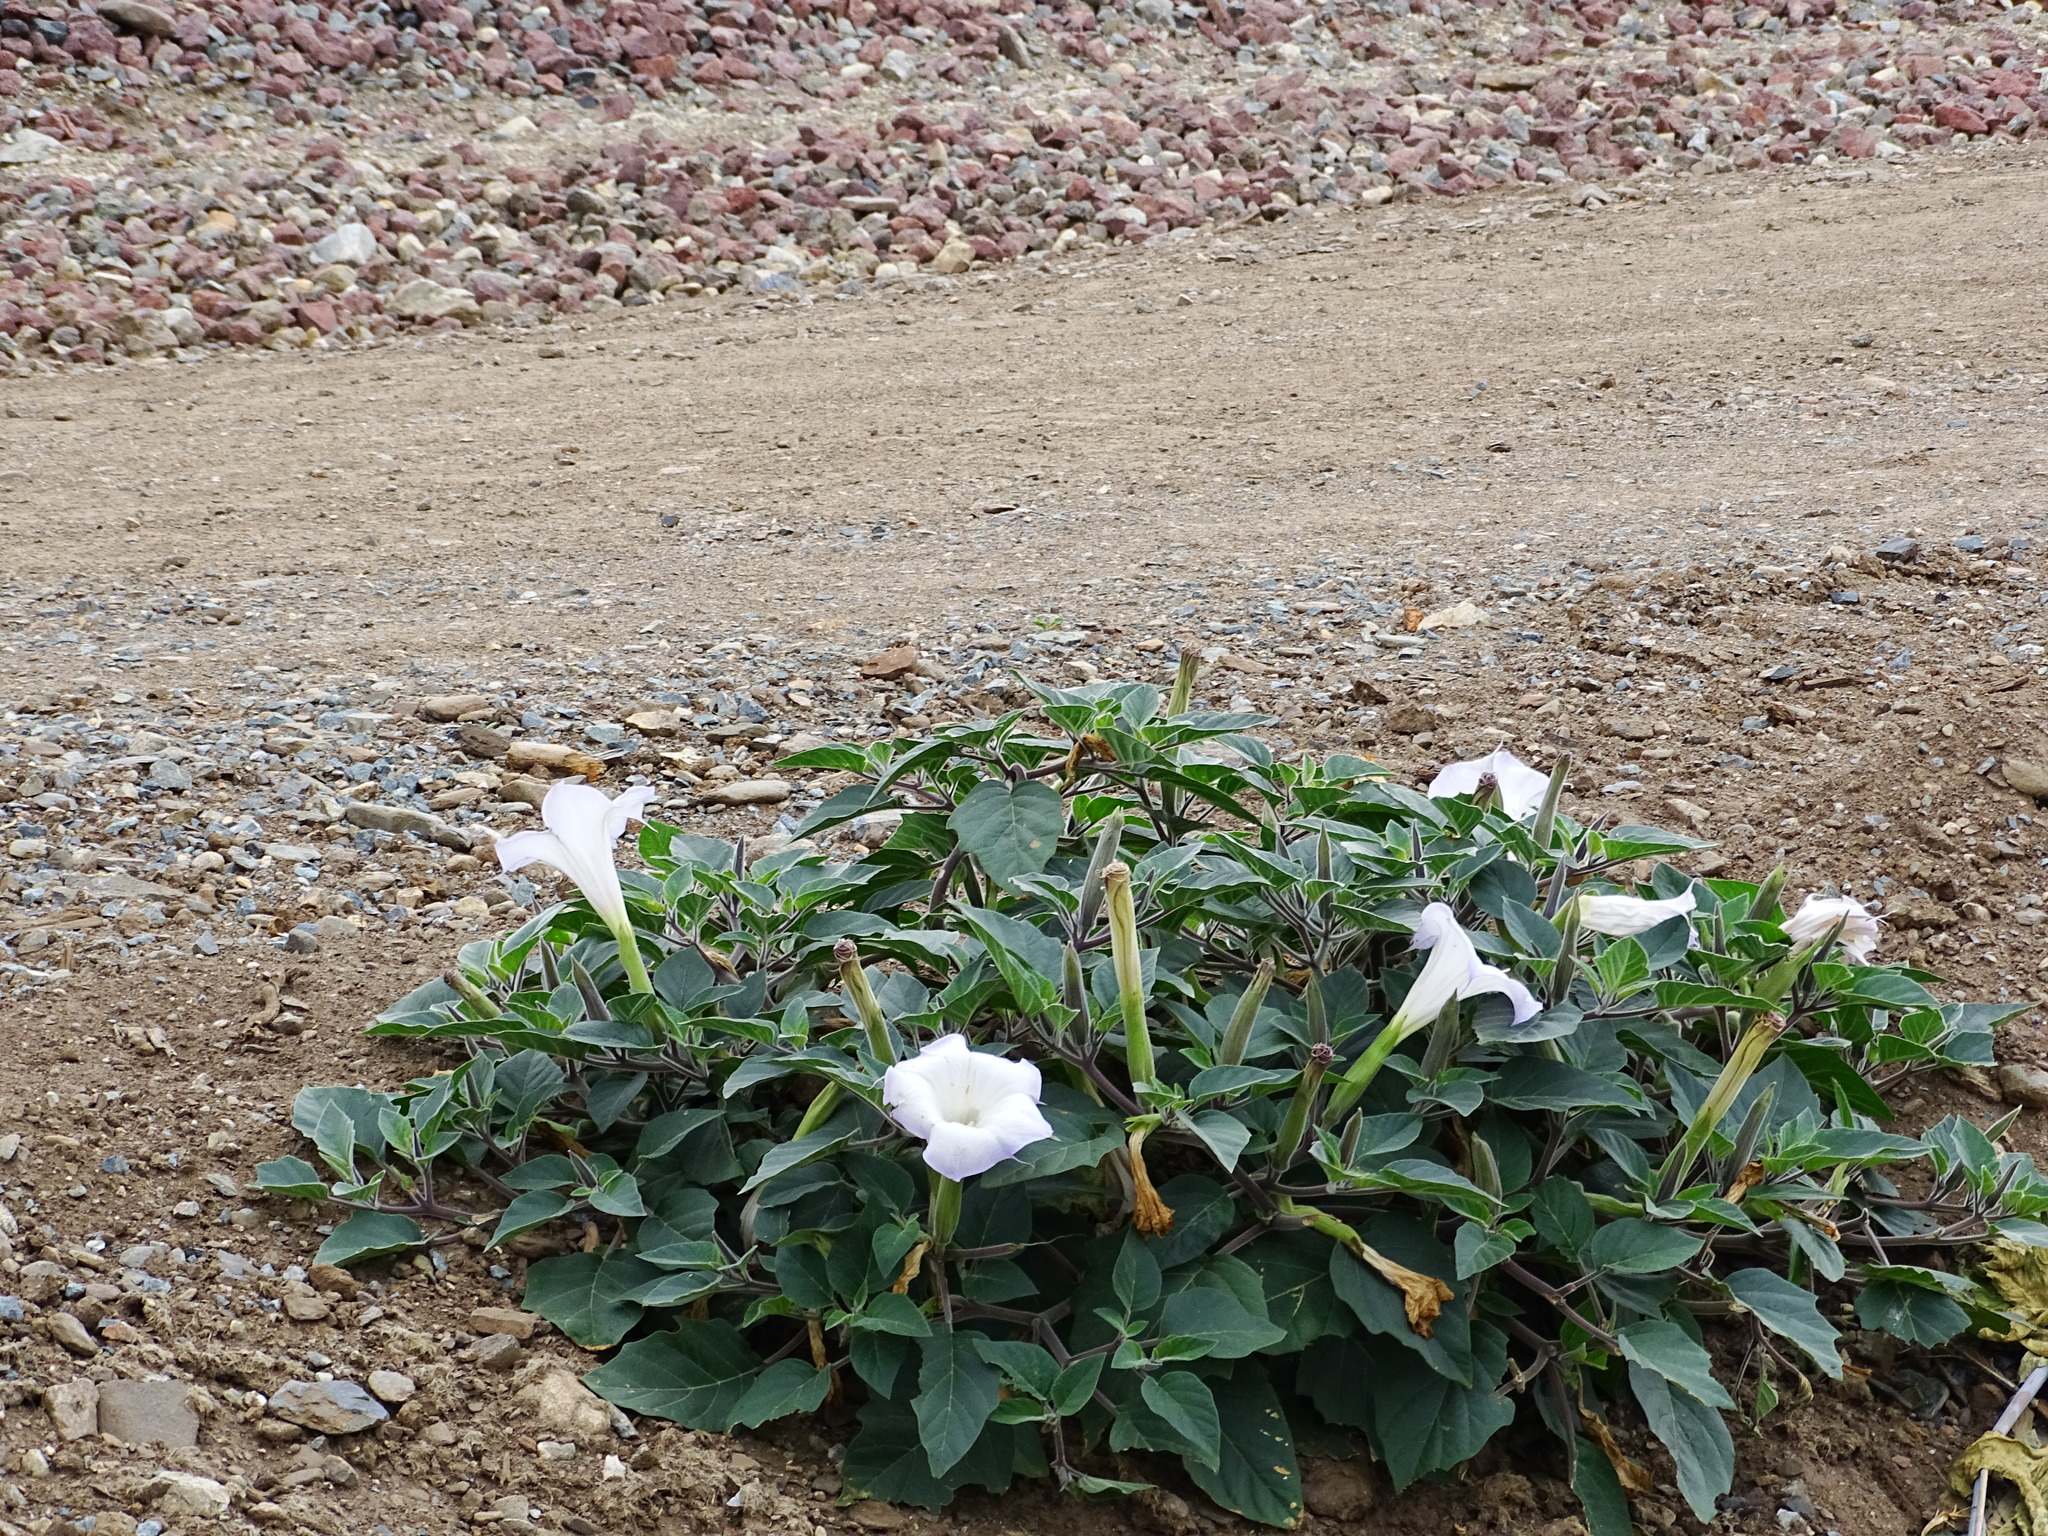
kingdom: Plantae
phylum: Tracheophyta
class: Magnoliopsida
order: Solanales
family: Solanaceae
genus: Datura
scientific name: Datura wrightii
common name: Sacred thorn-apple
